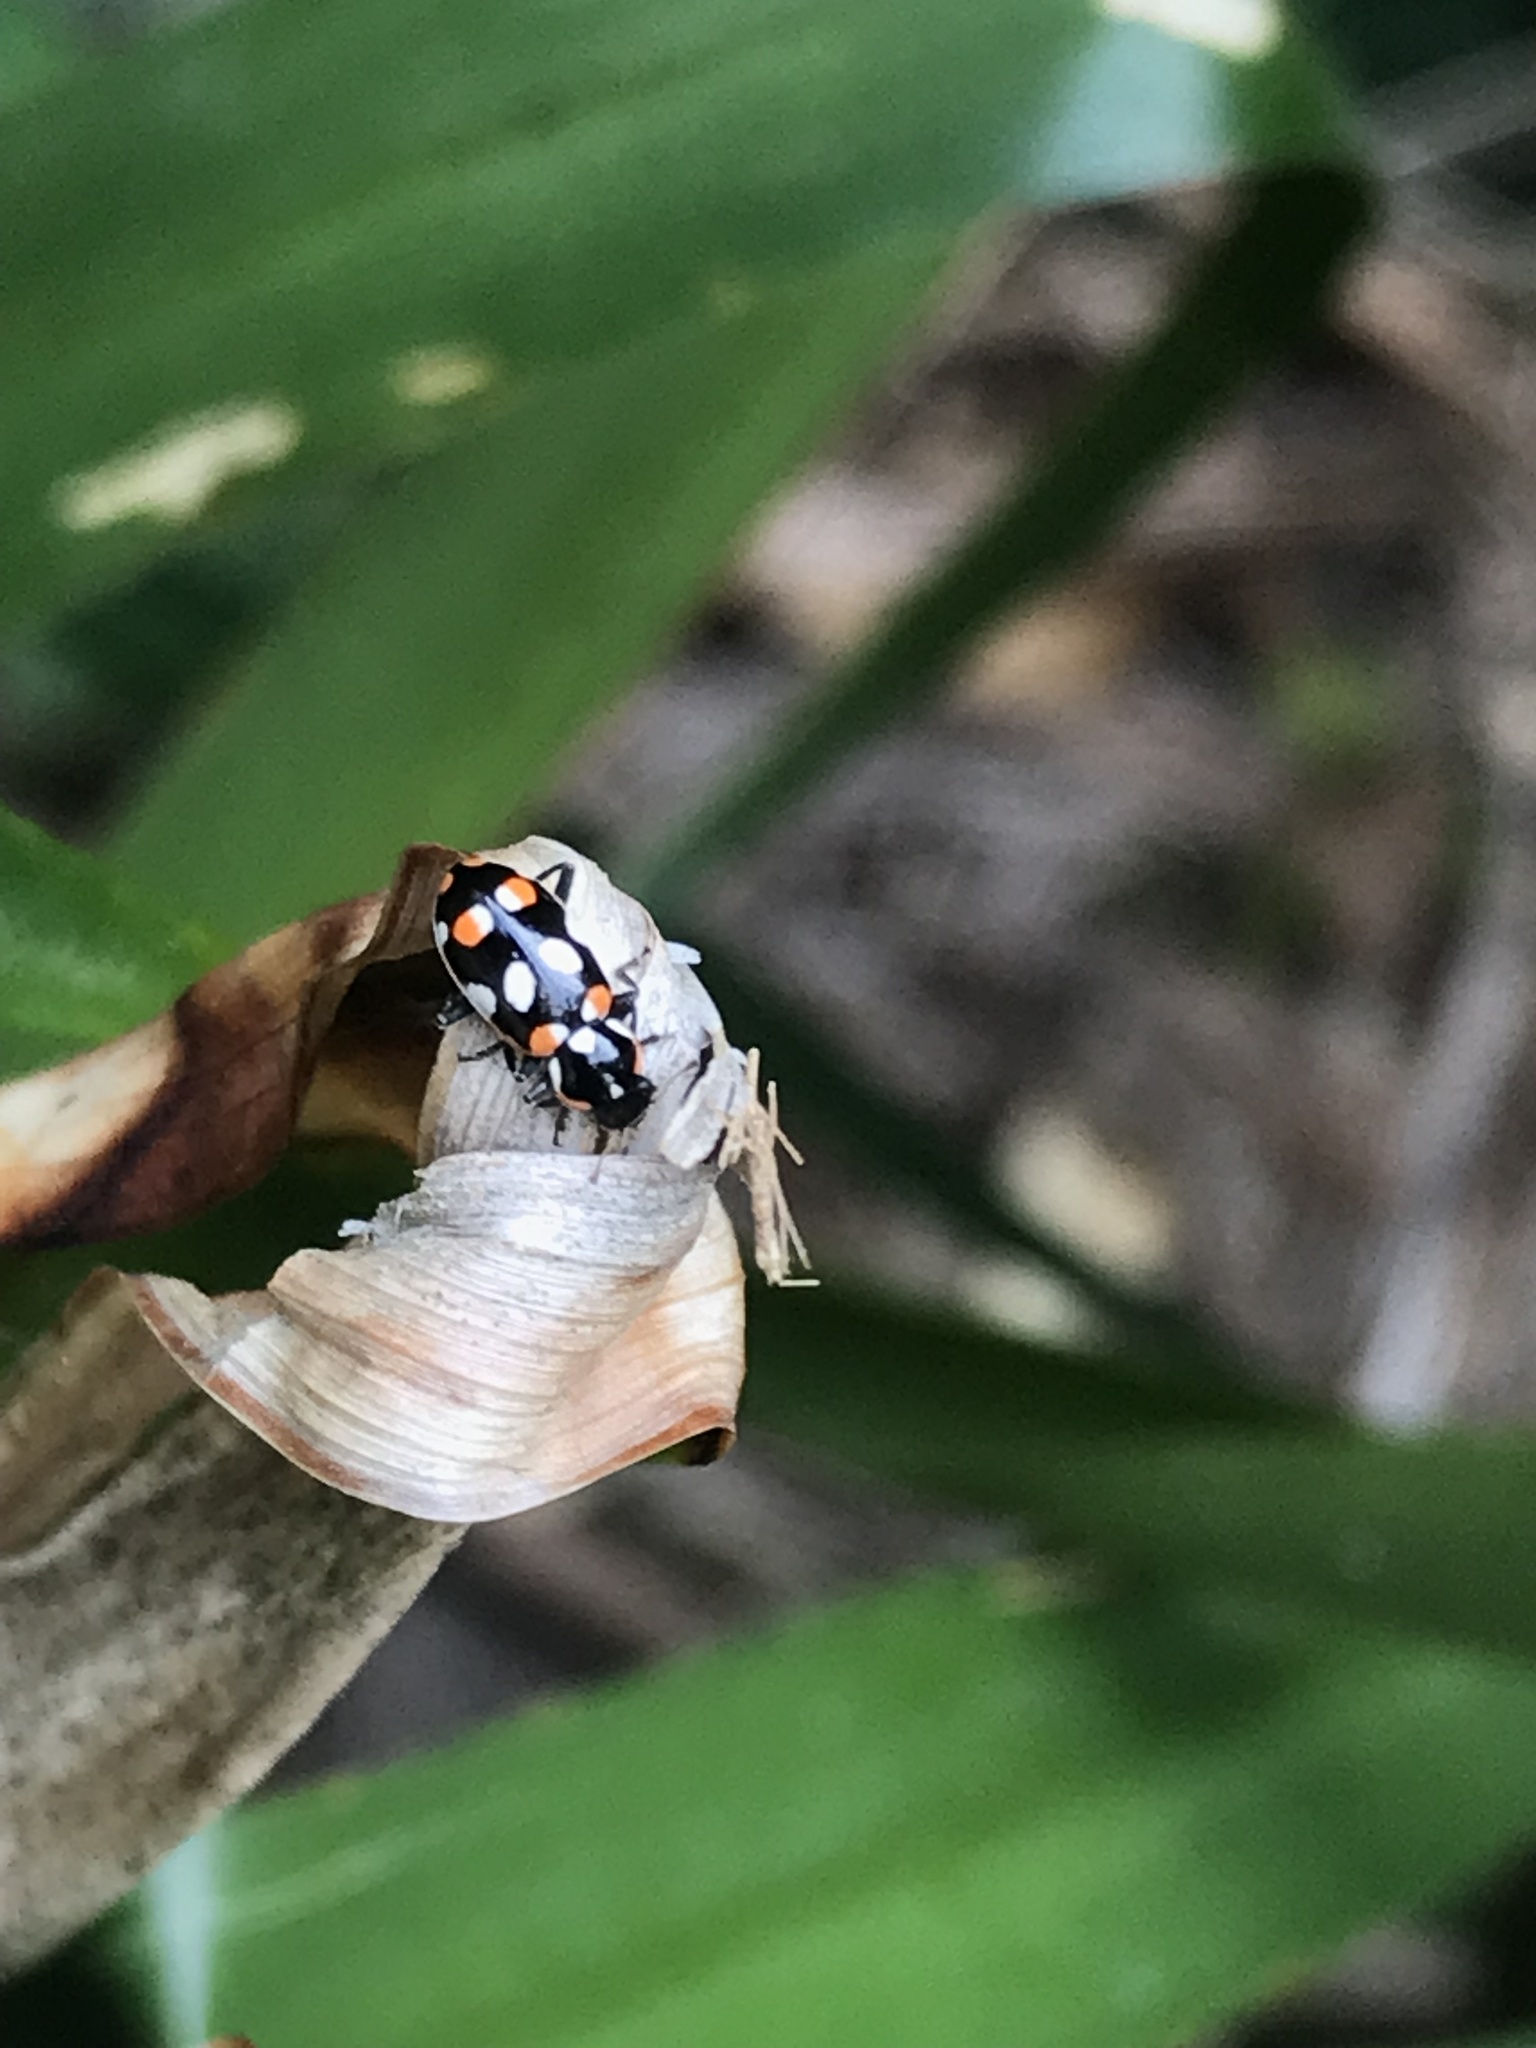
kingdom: Animalia
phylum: Arthropoda
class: Insecta
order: Coleoptera
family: Coccinellidae
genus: Eriopis
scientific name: Eriopis connexa
